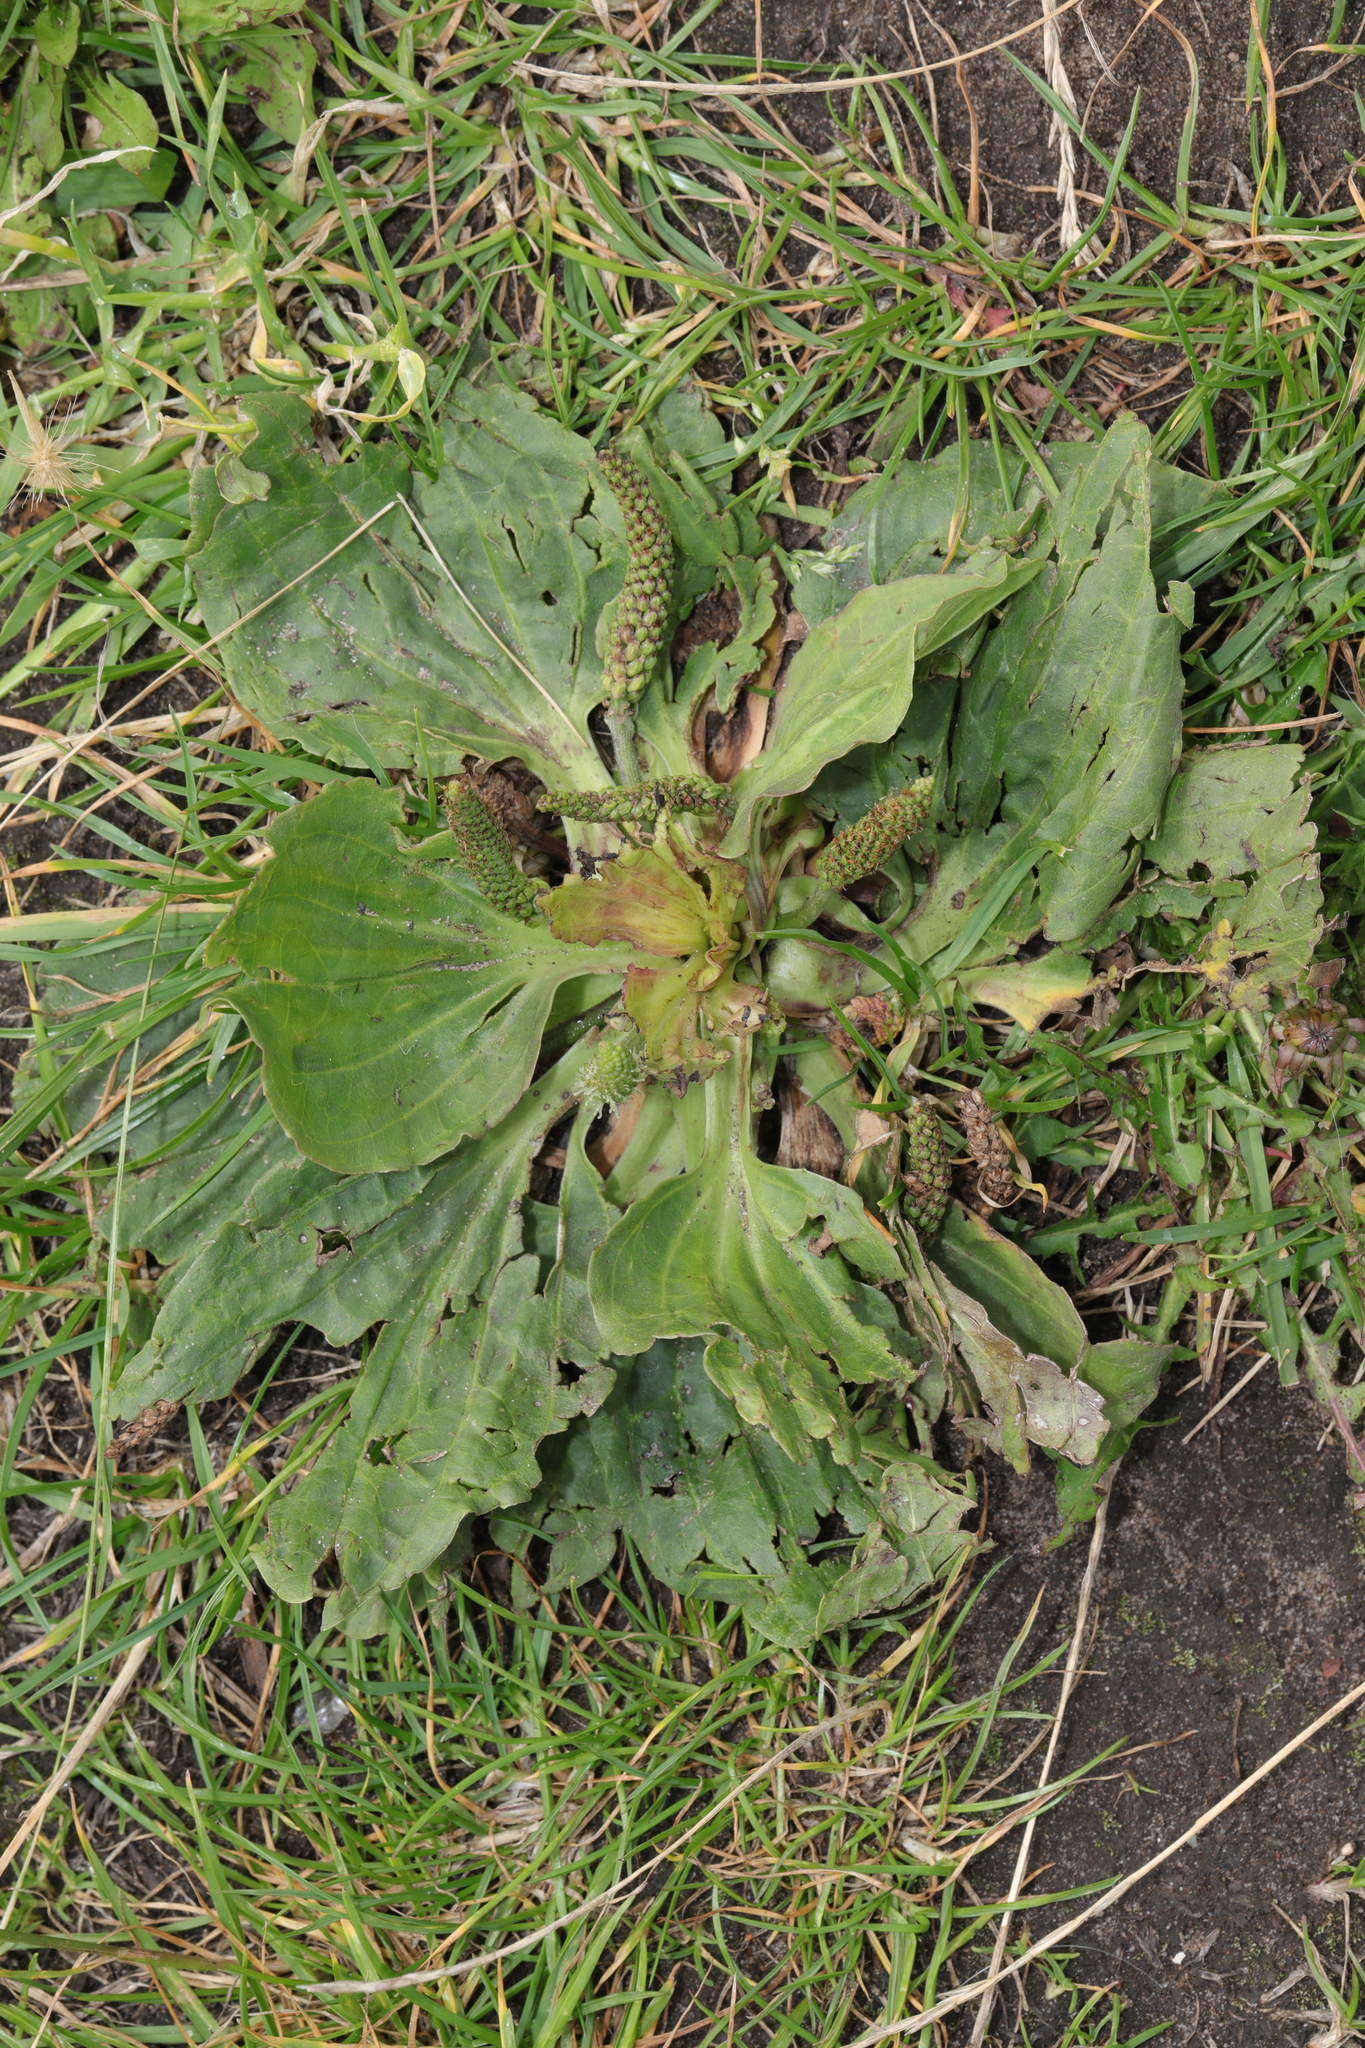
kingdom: Plantae
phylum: Tracheophyta
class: Magnoliopsida
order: Lamiales
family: Plantaginaceae
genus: Plantago
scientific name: Plantago major
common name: Common plantain
